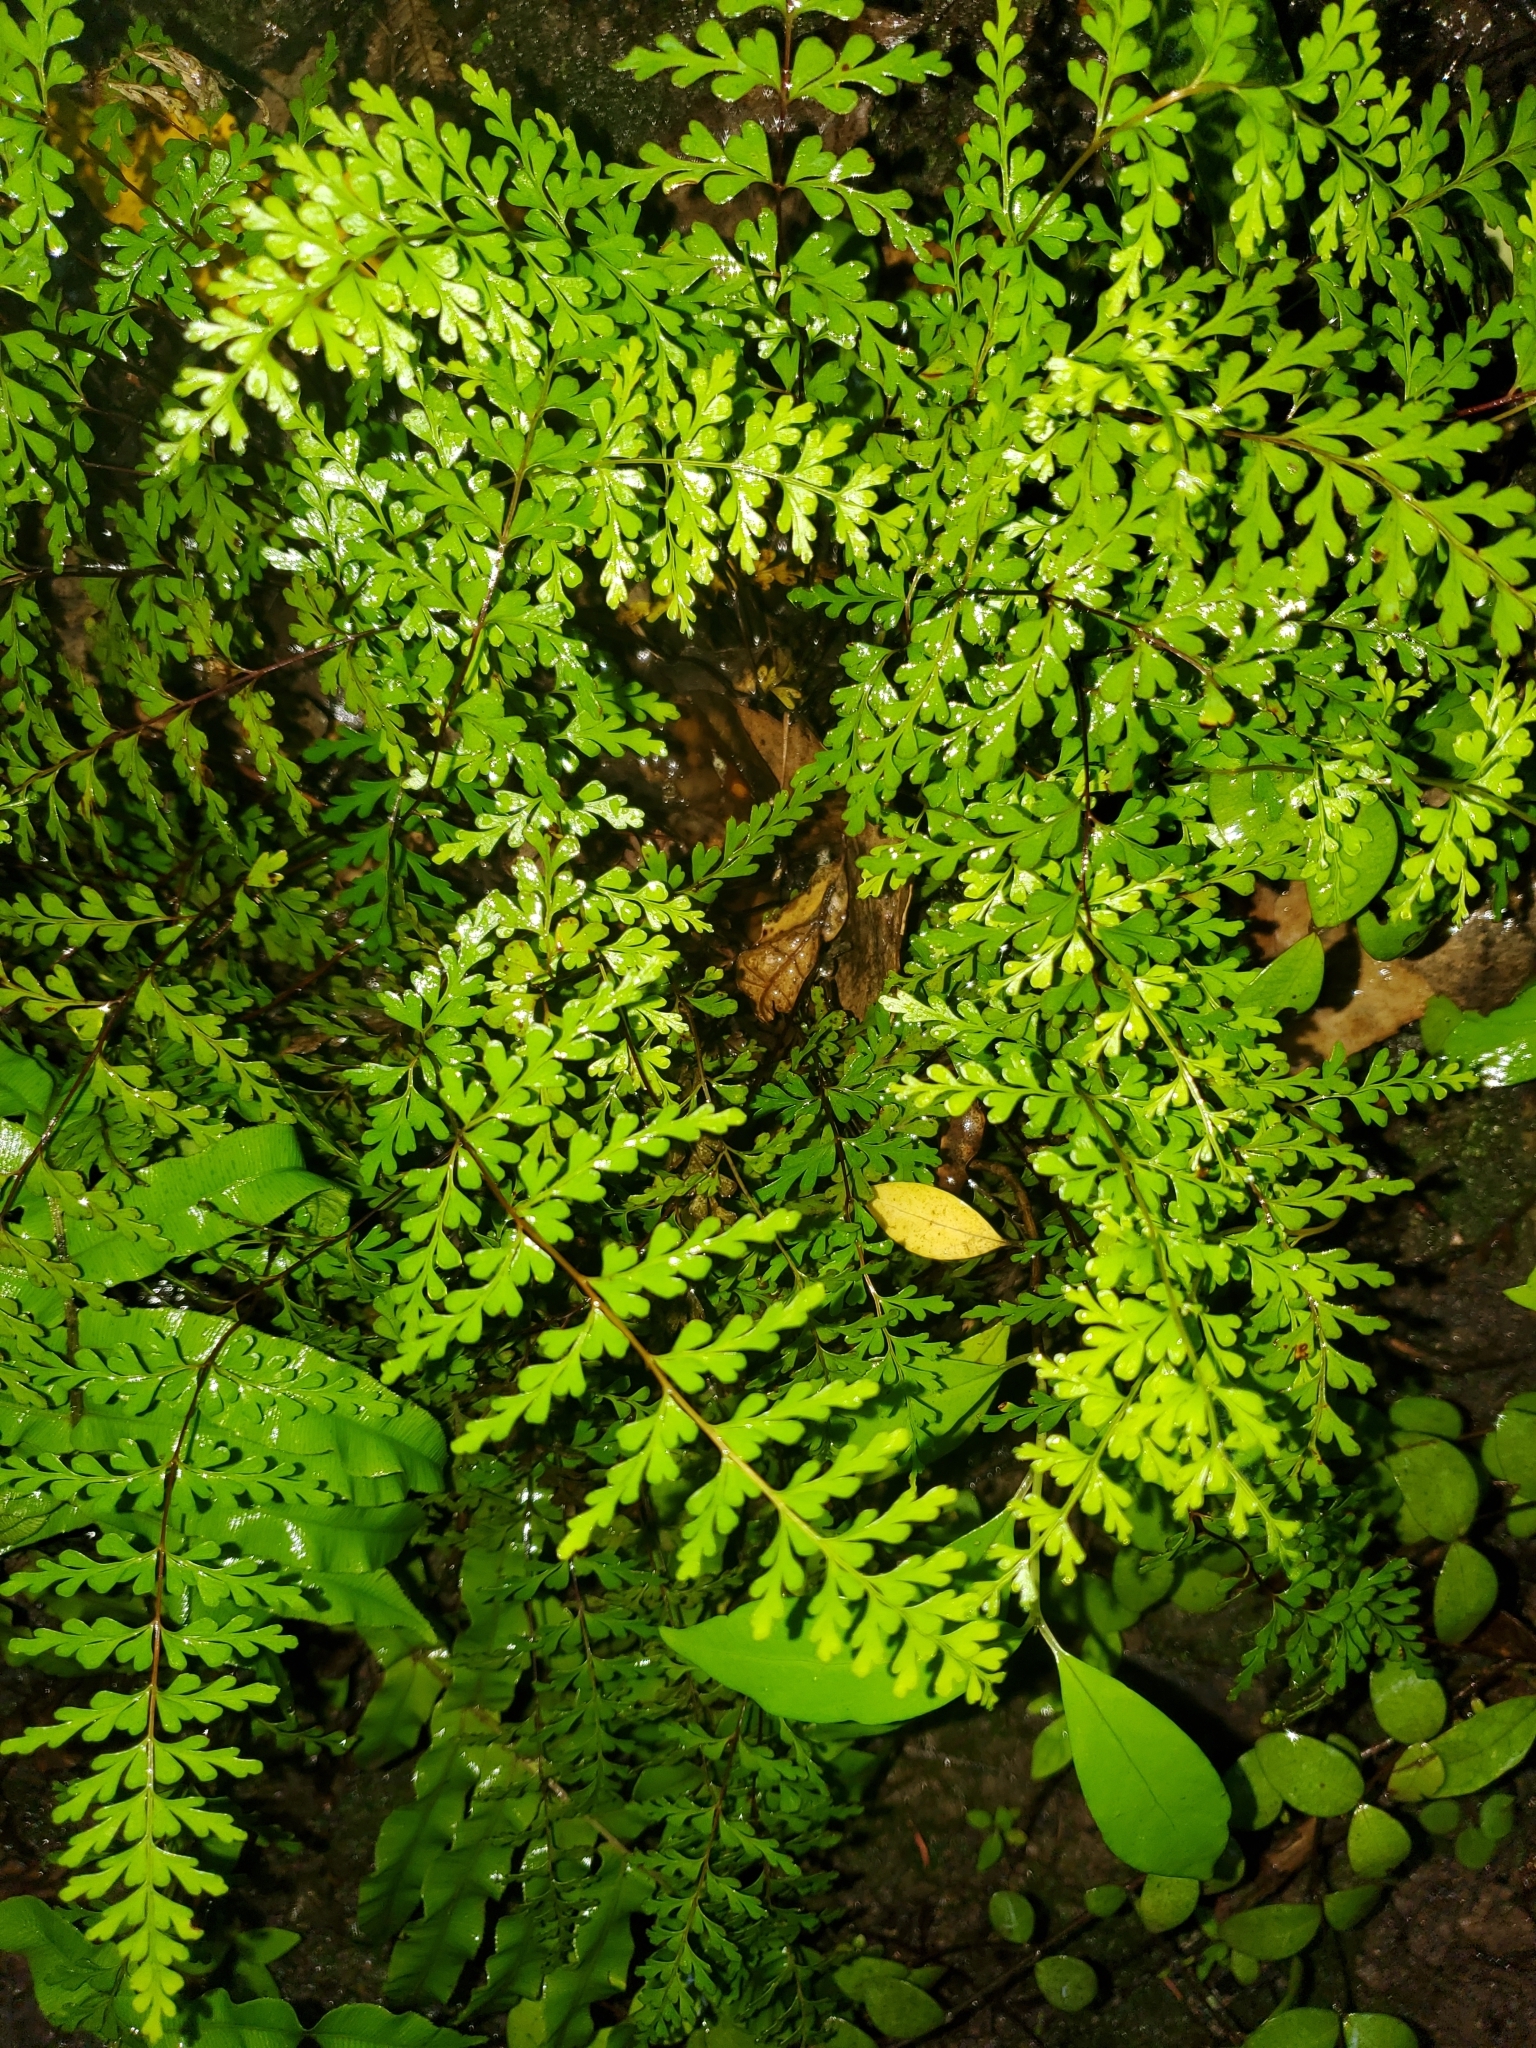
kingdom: Plantae
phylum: Tracheophyta
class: Polypodiopsida
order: Polypodiales
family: Lindsaeaceae
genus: Lindsaea
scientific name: Lindsaea trichomanoides
